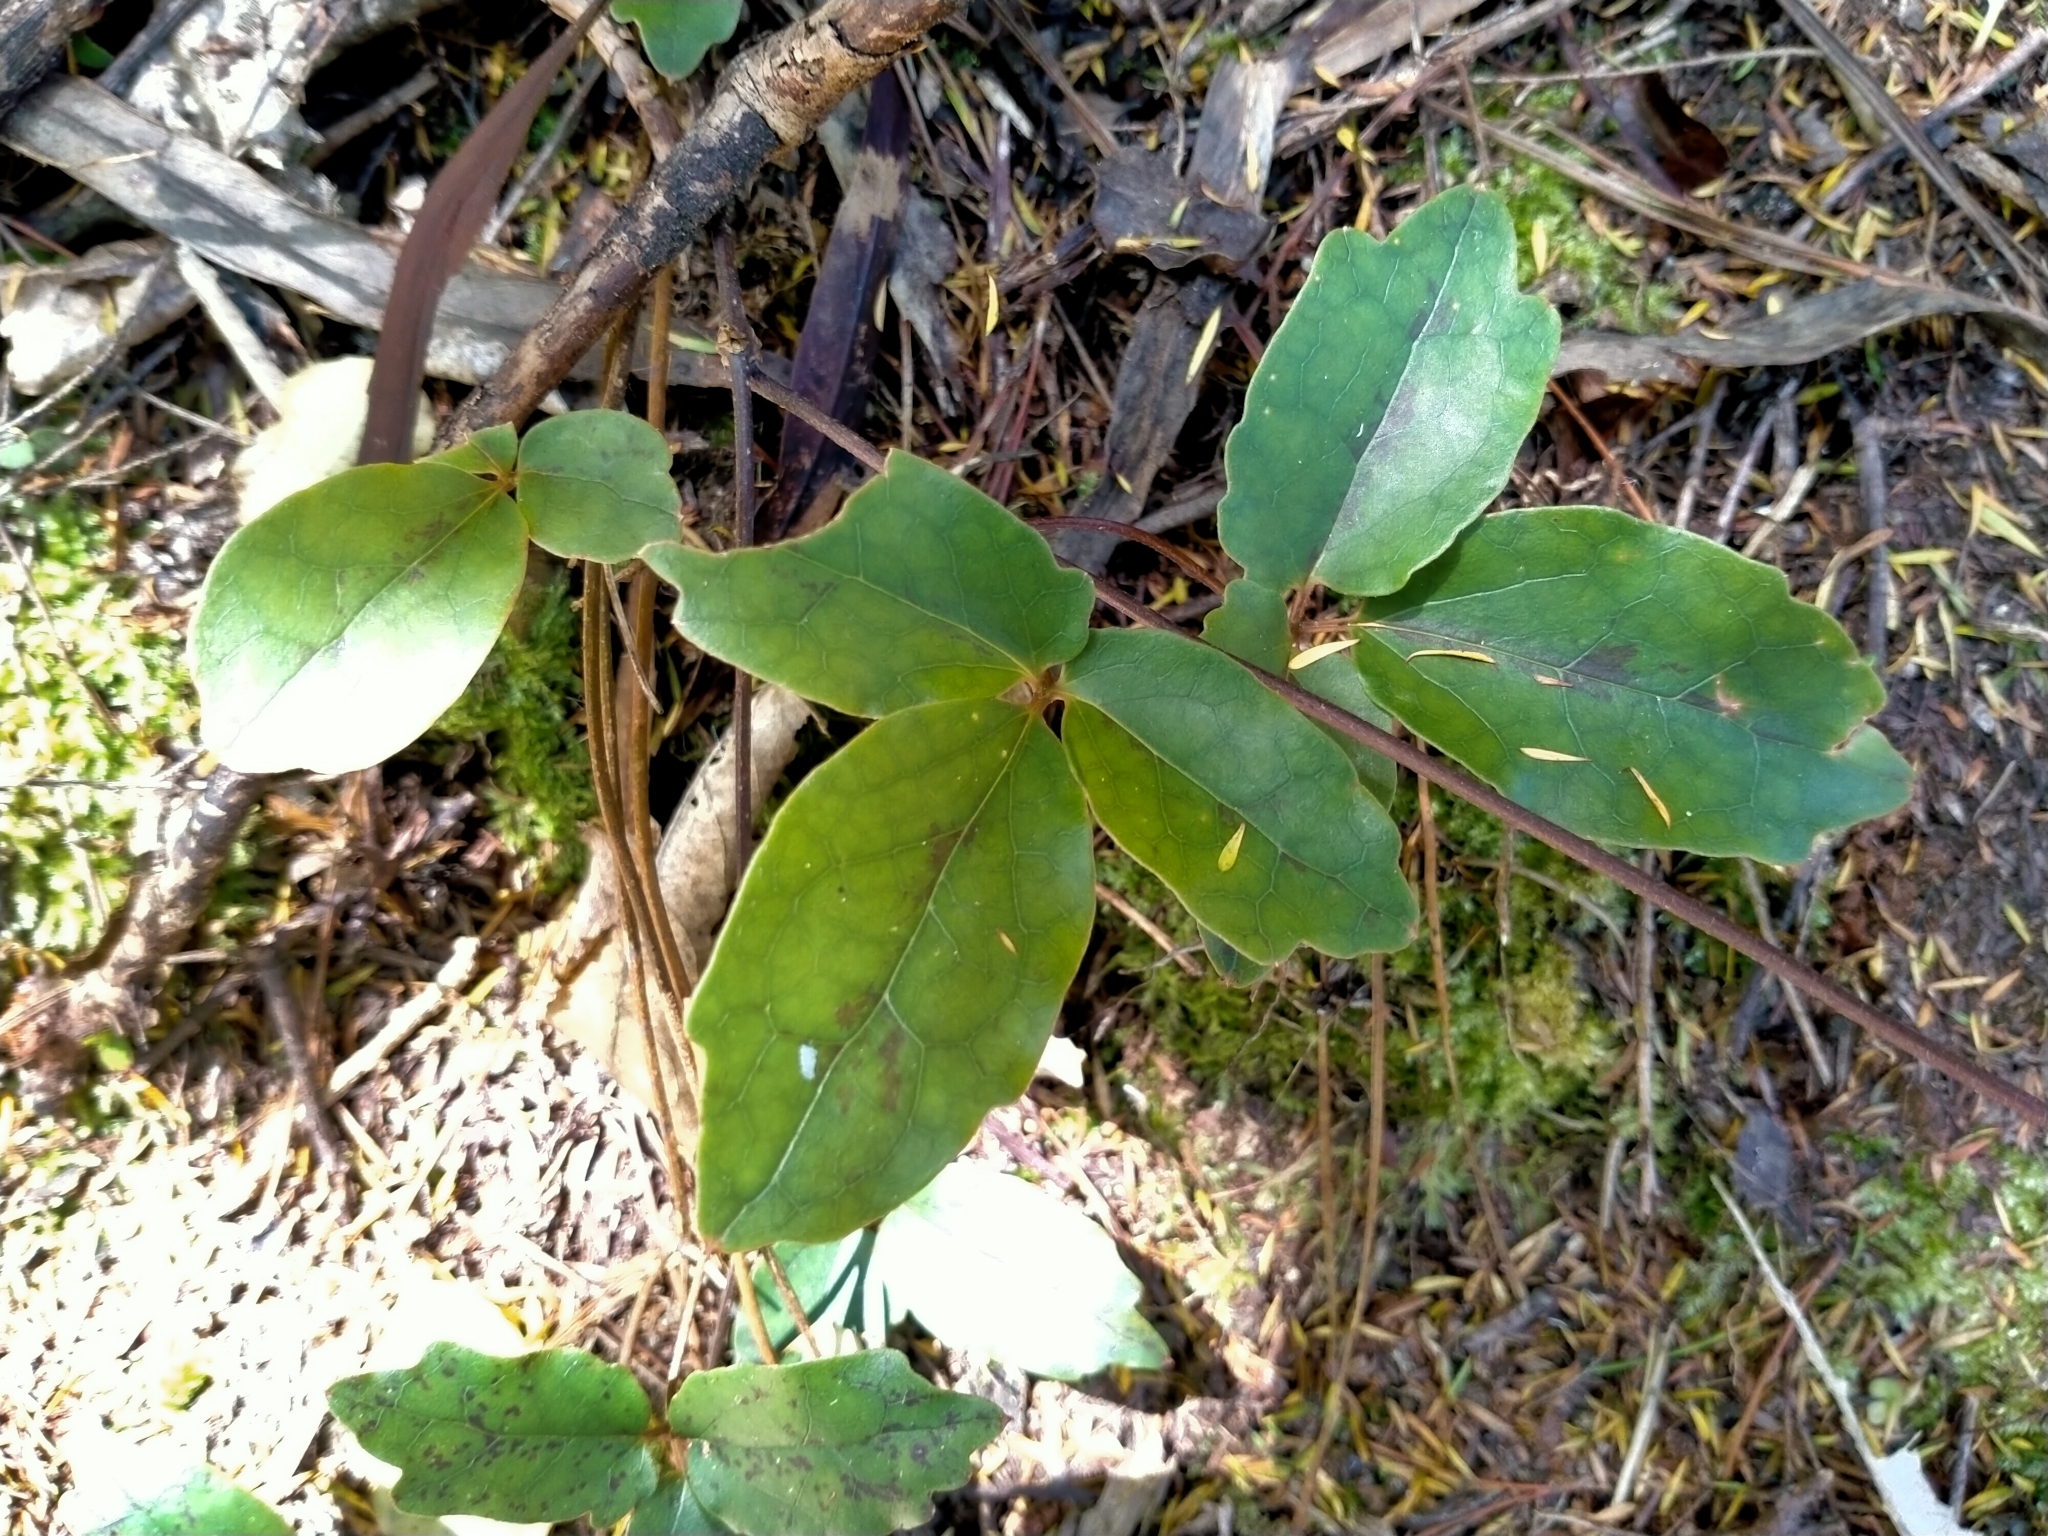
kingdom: Plantae
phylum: Tracheophyta
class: Magnoliopsida
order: Ranunculales
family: Ranunculaceae
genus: Clematis
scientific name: Clematis paniculata
